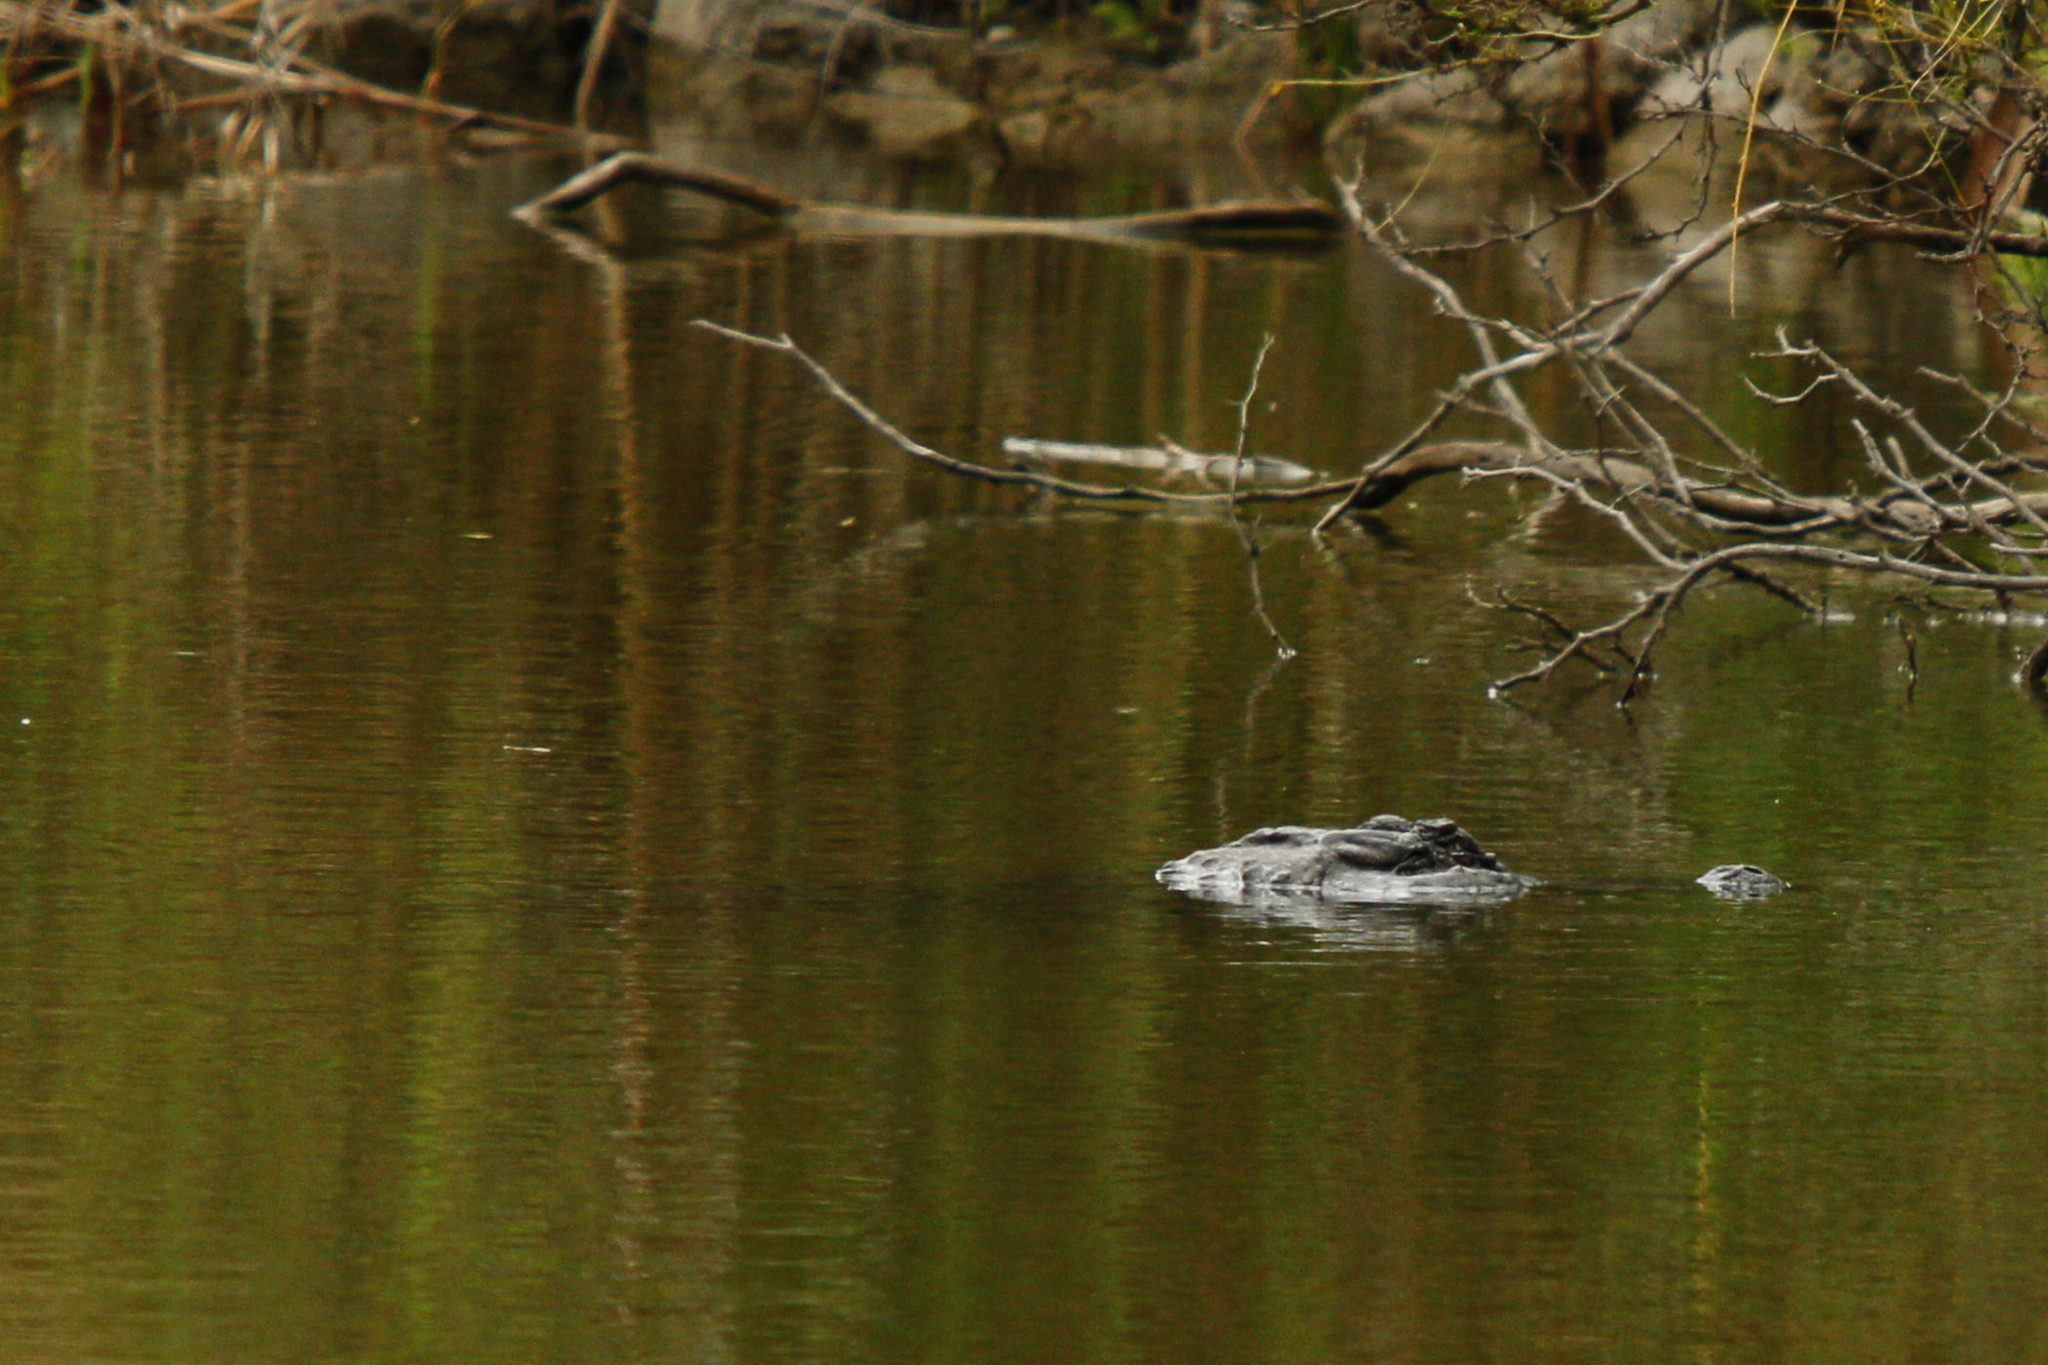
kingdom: Animalia
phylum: Chordata
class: Crocodylia
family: Alligatoridae
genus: Alligator
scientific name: Alligator mississippiensis
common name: American alligator
